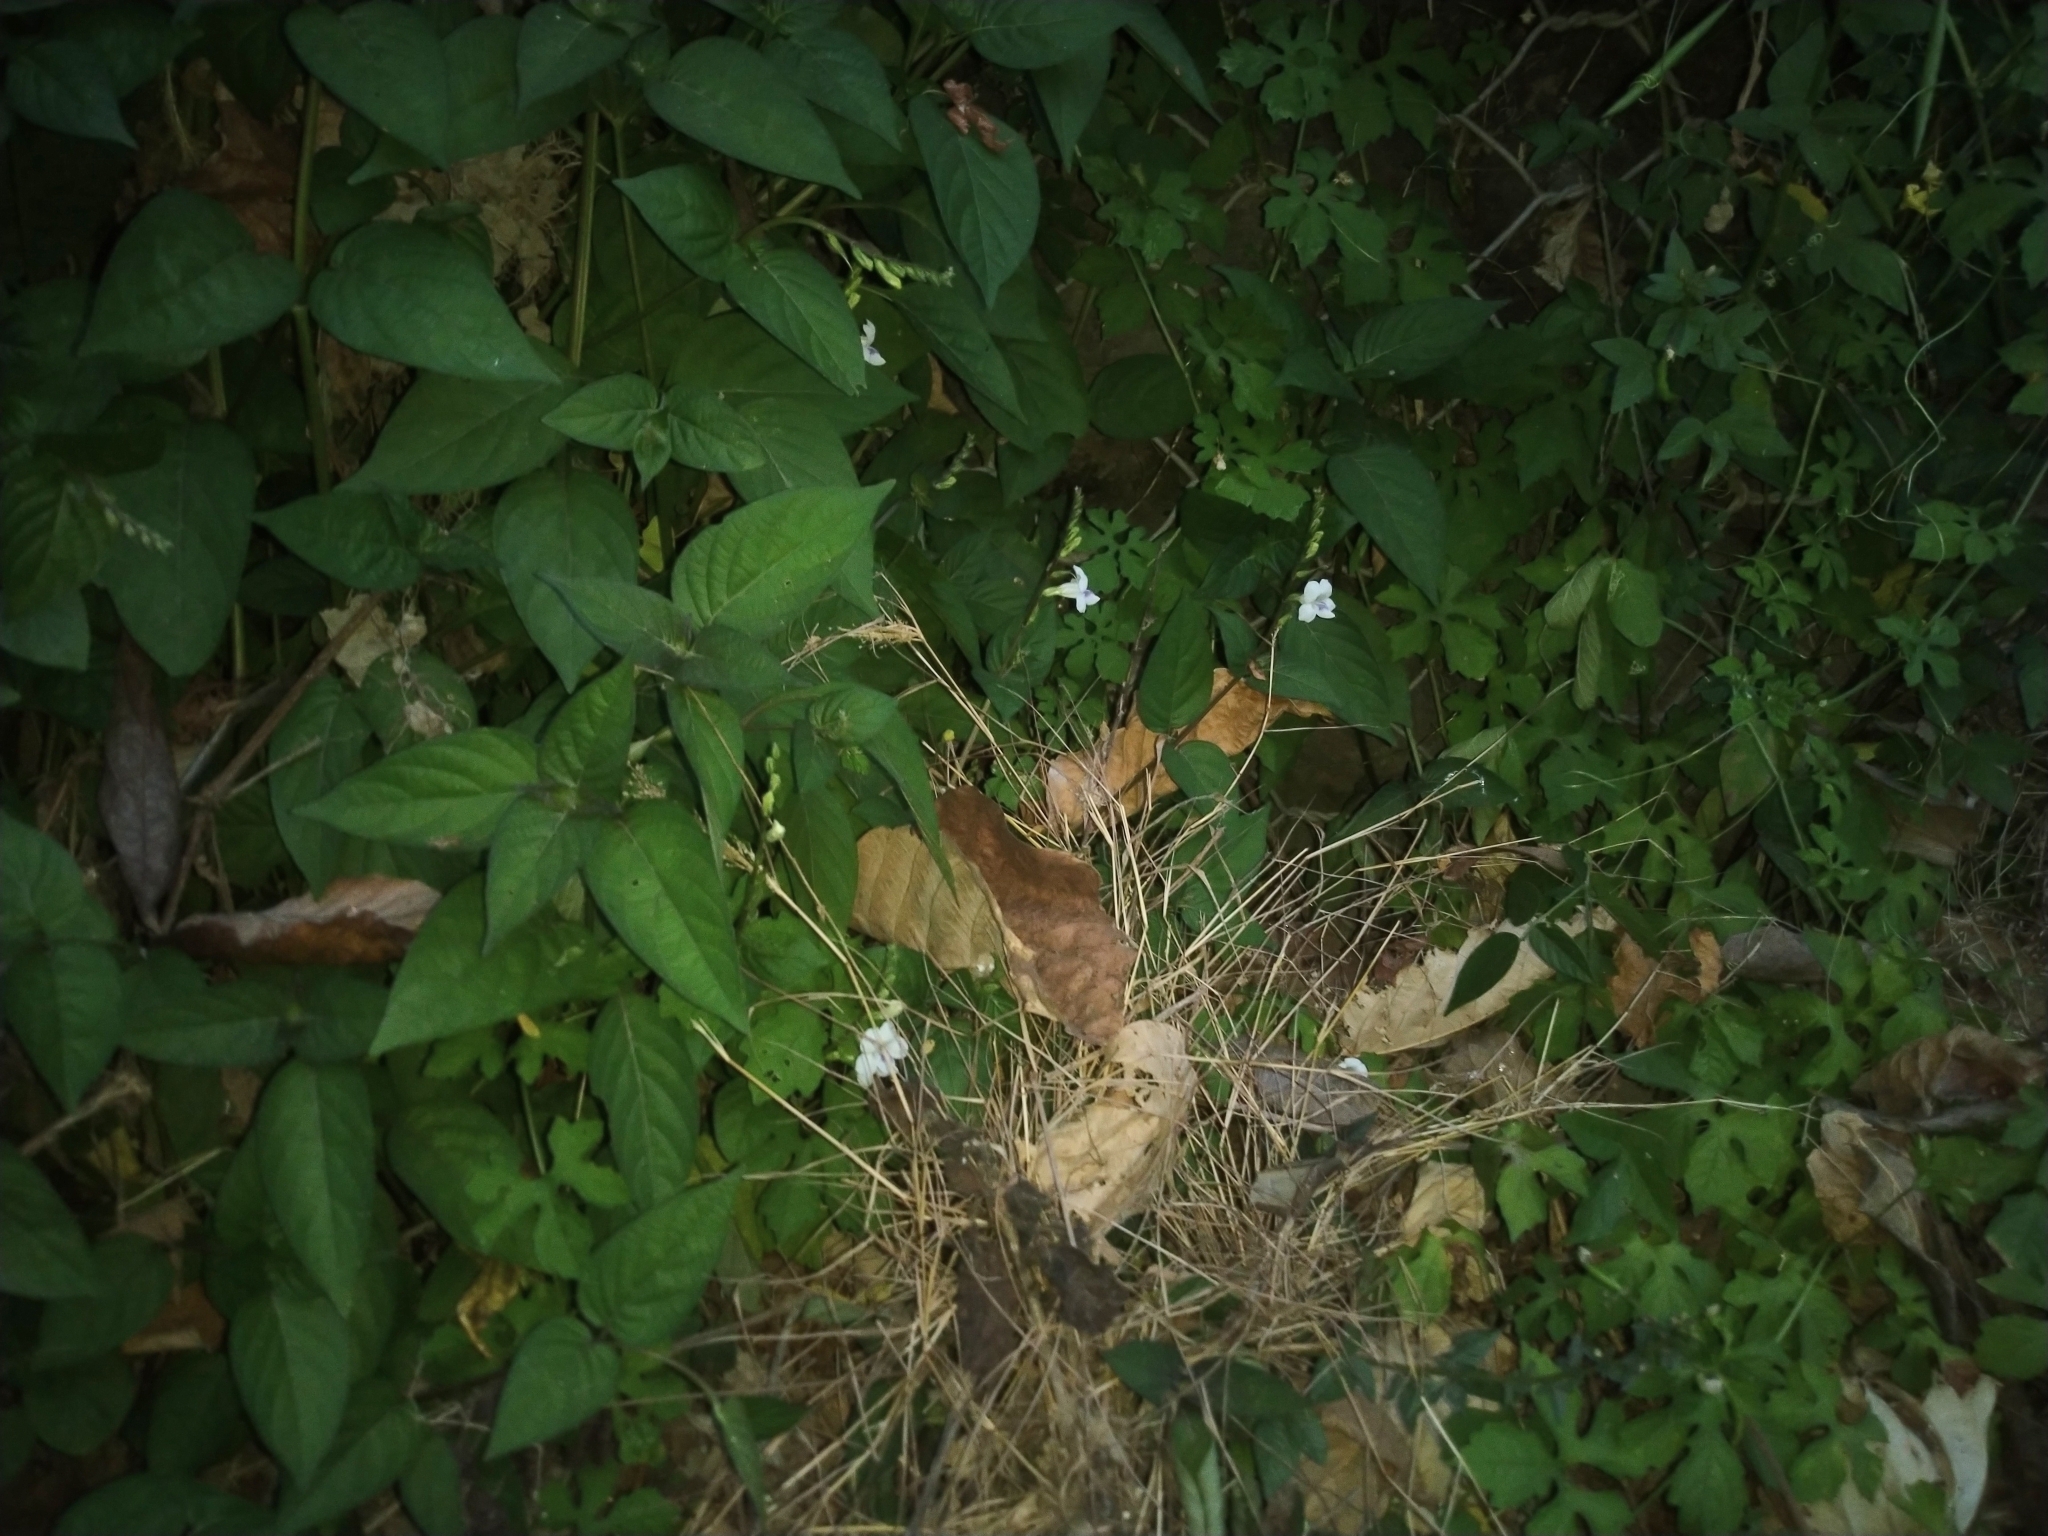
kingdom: Plantae
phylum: Tracheophyta
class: Magnoliopsida
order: Lamiales
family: Acanthaceae
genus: Asystasia
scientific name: Asystasia intrusa
